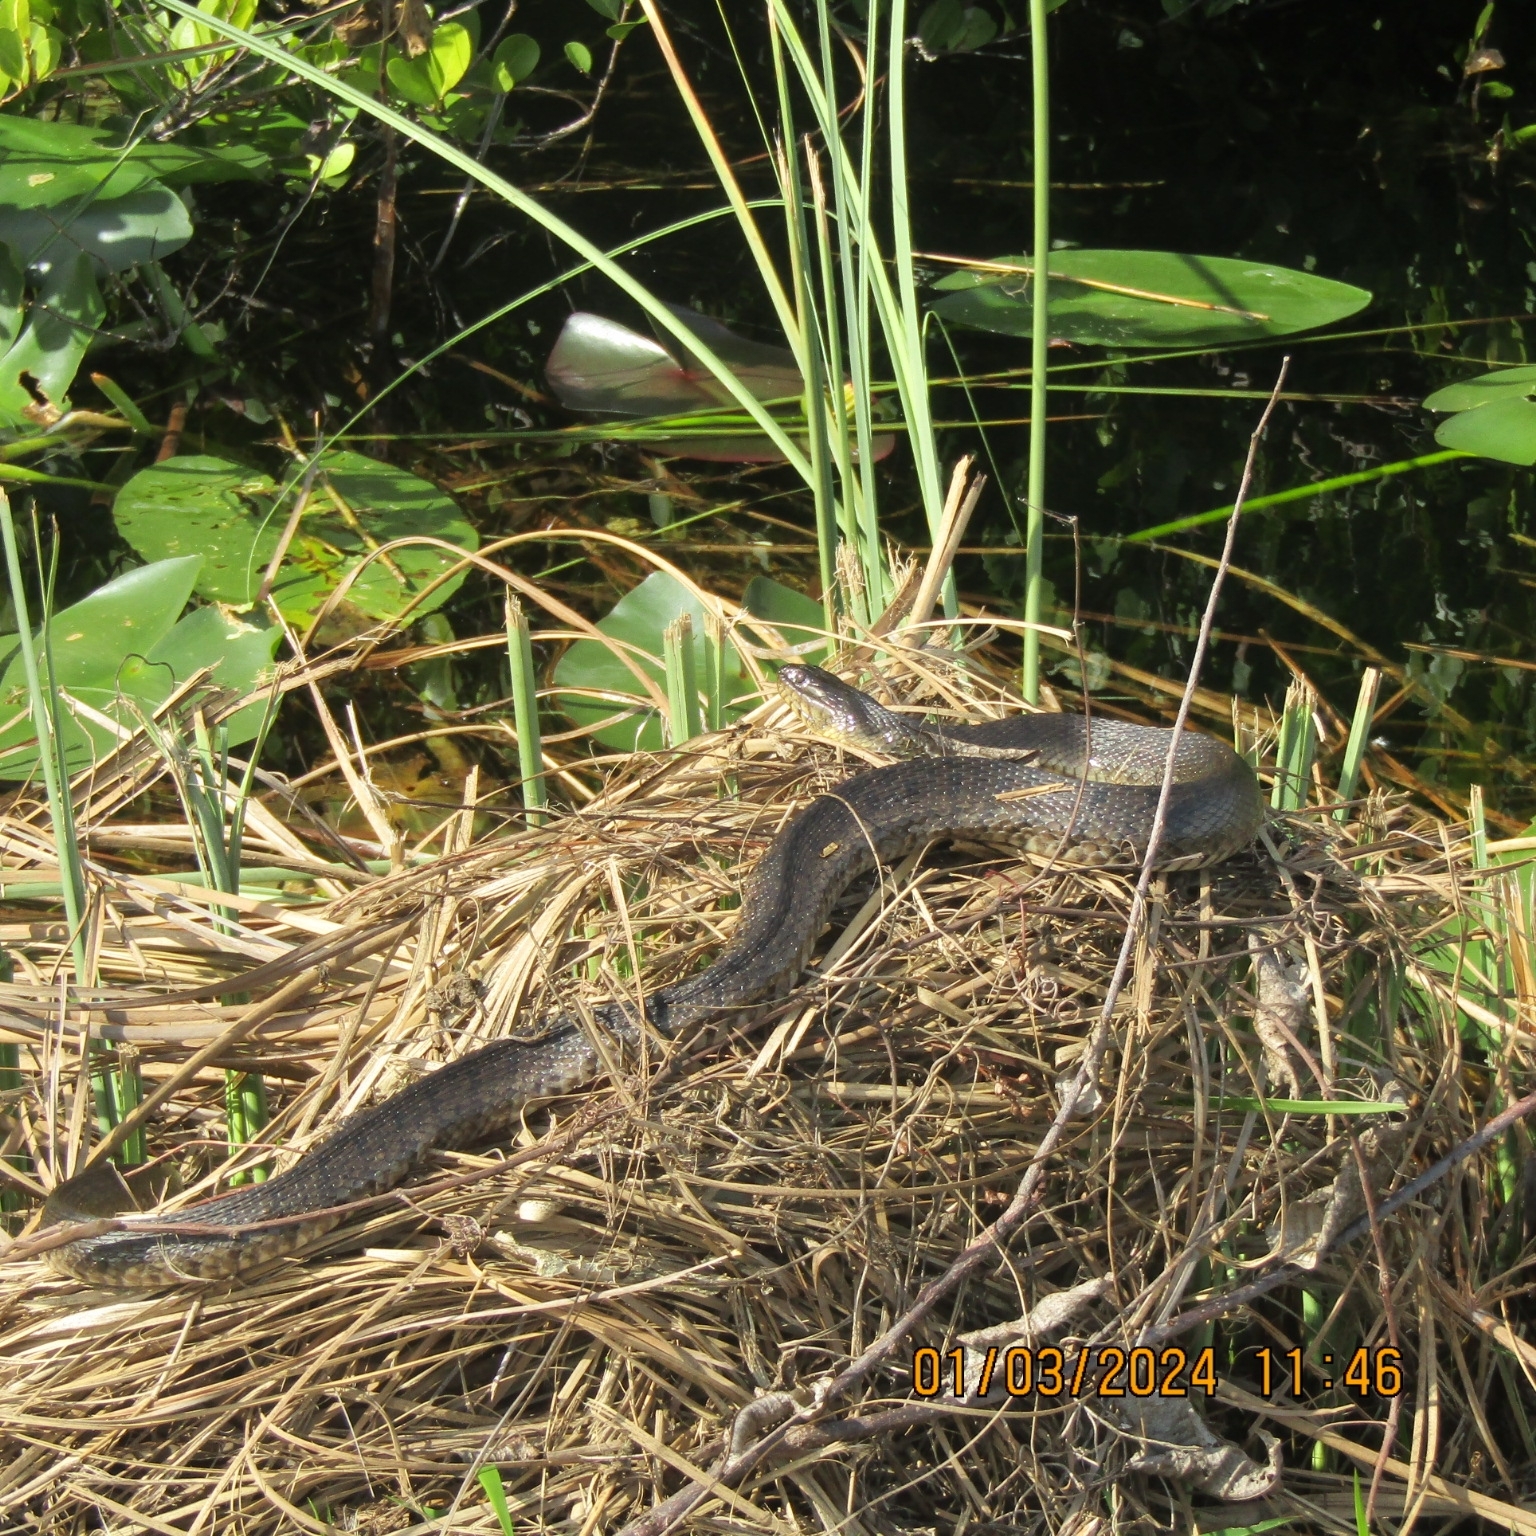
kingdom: Animalia
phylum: Chordata
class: Squamata
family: Colubridae
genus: Nerodia
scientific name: Nerodia floridana
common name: Florida green watersnake
